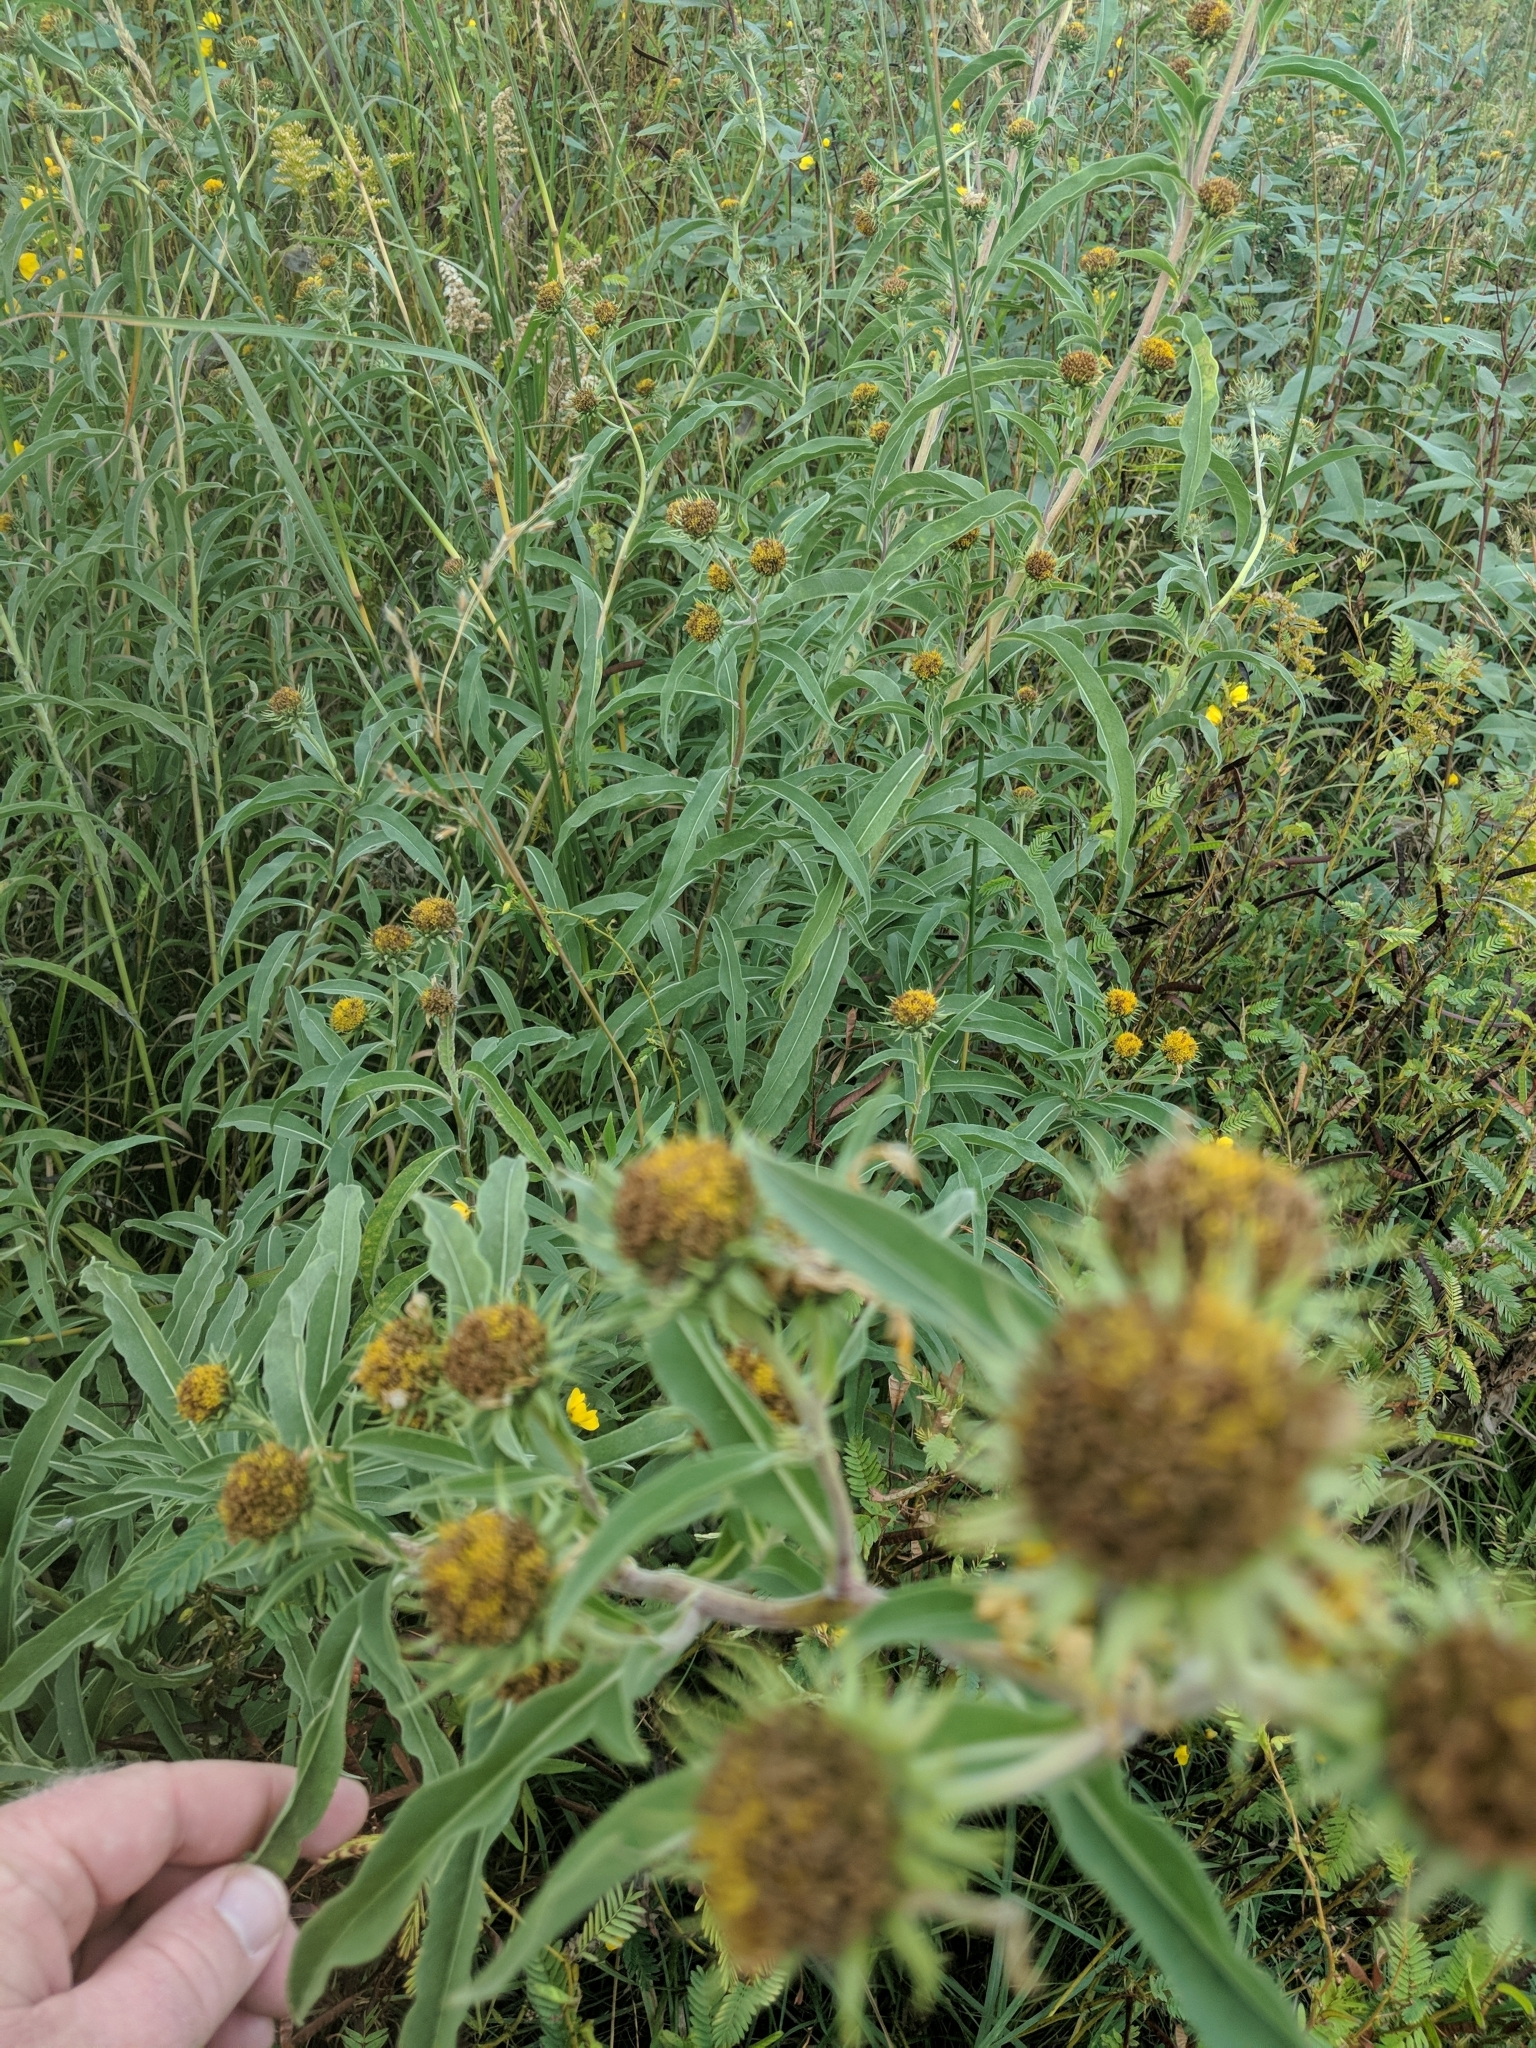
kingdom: Plantae
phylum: Tracheophyta
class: Magnoliopsida
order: Asterales
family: Asteraceae
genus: Helianthus
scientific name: Helianthus maximiliani
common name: Maximilian's sunflower
